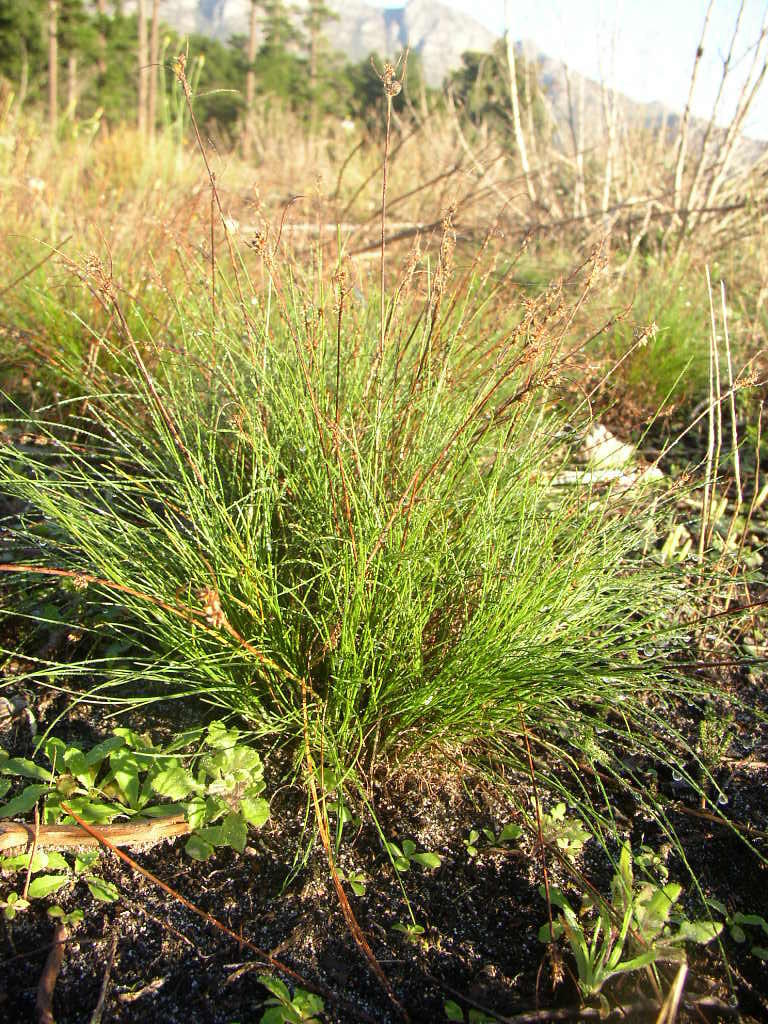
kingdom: Plantae
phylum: Tracheophyta
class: Liliopsida
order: Poales
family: Cyperaceae
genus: Ficinia
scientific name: Ficinia secunda
